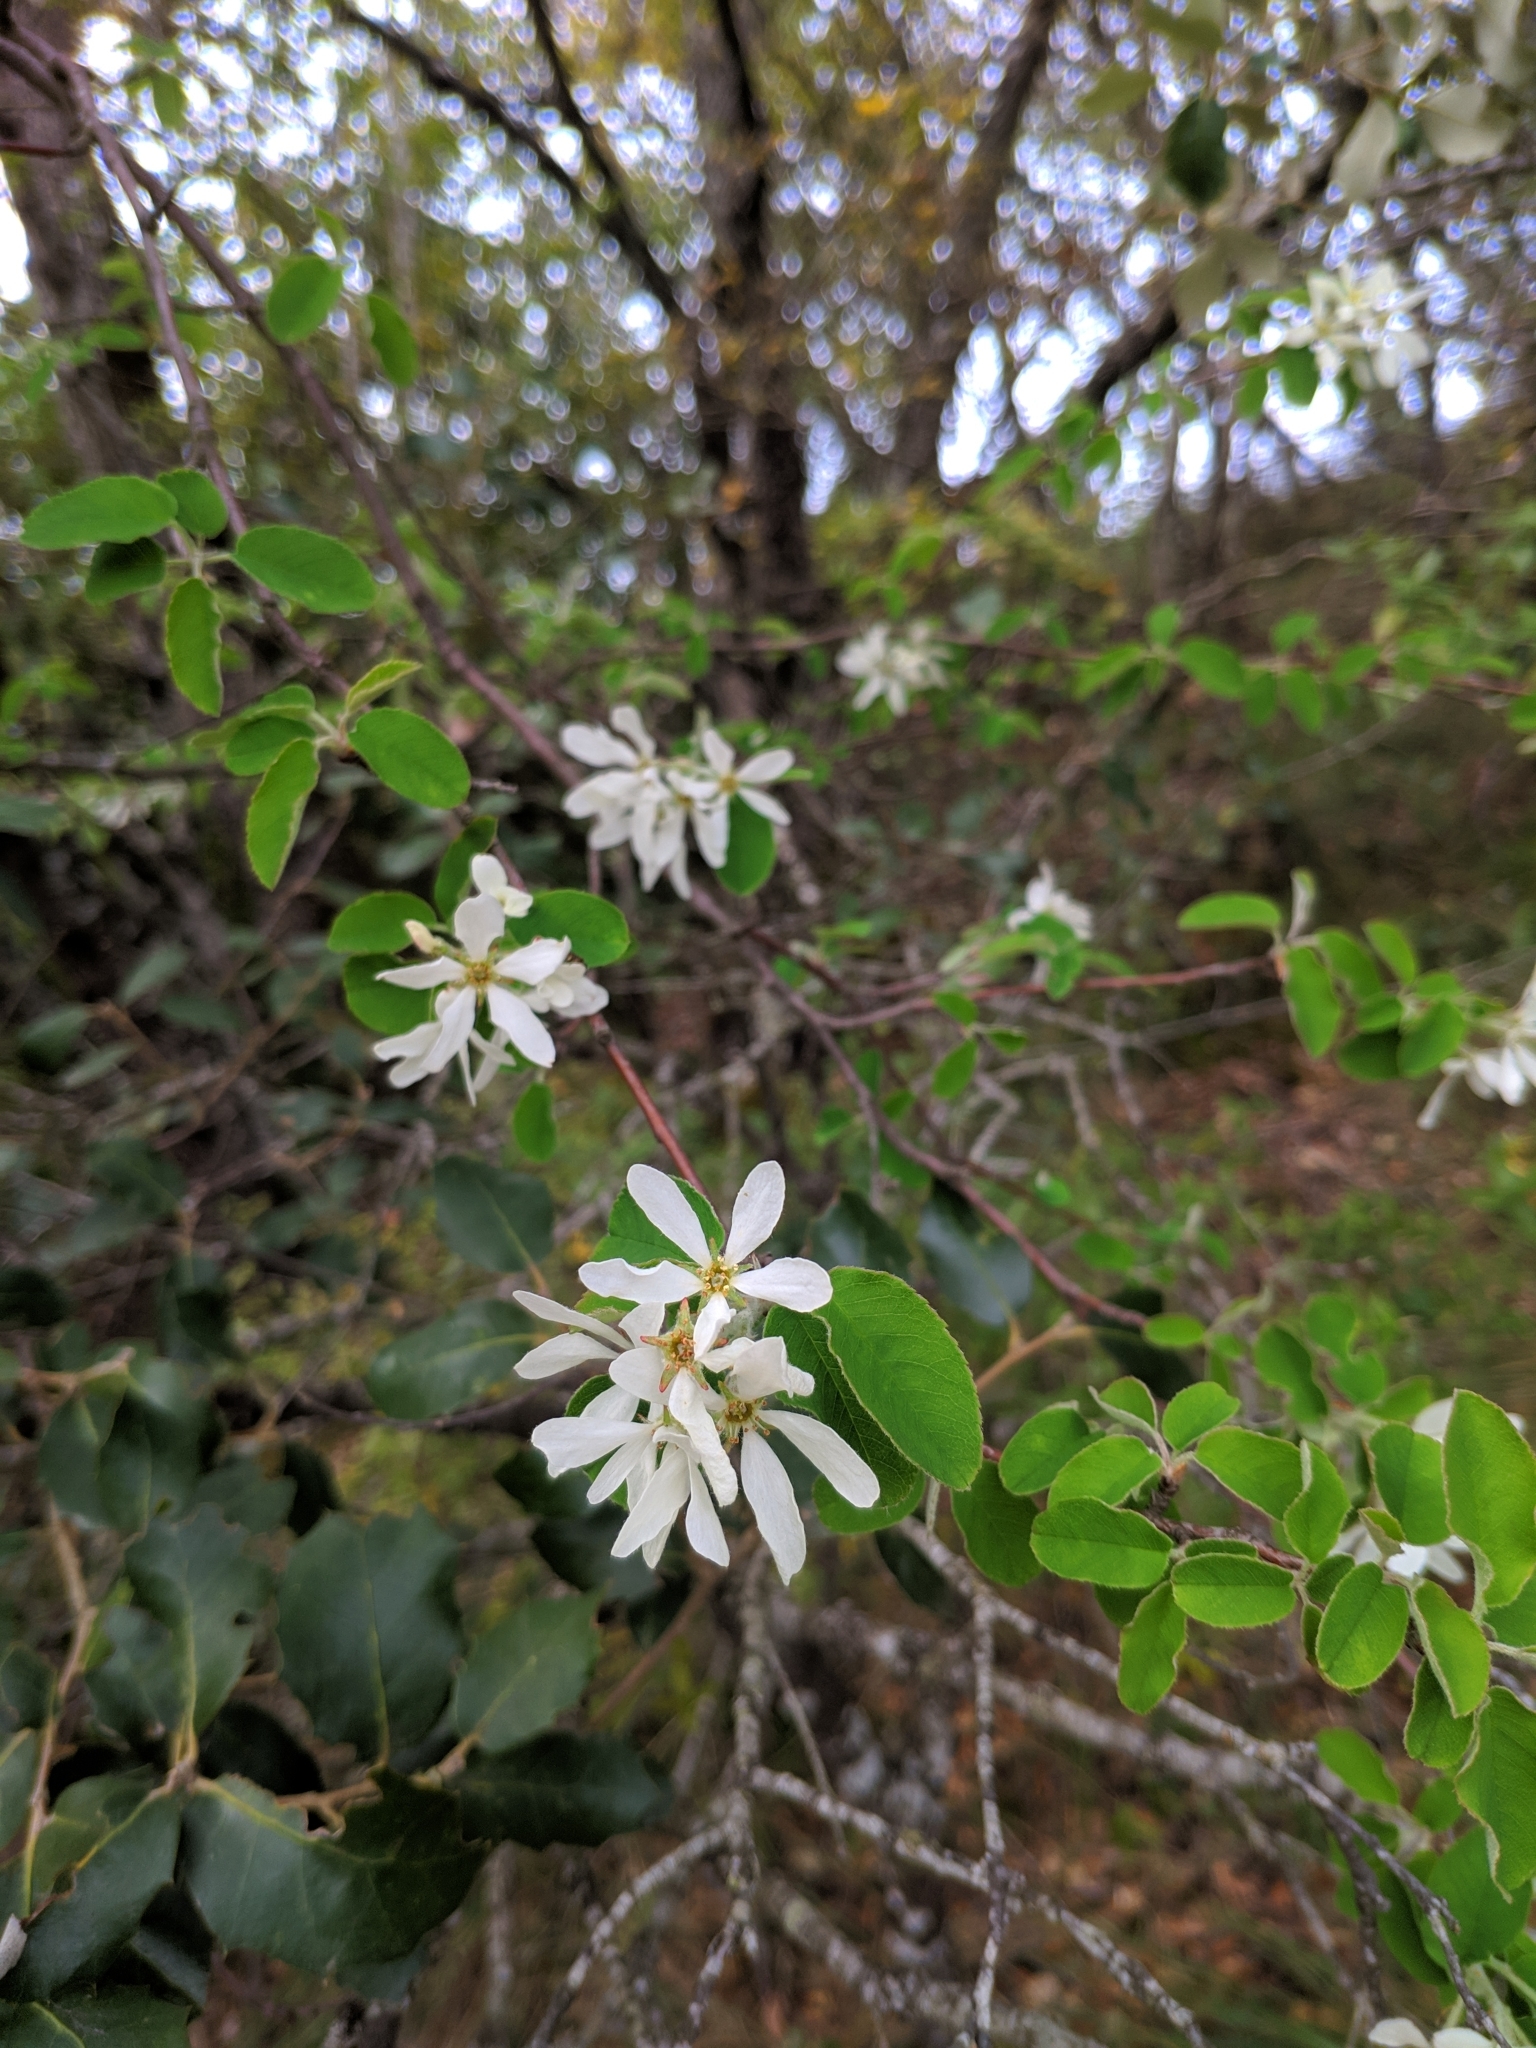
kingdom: Plantae
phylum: Tracheophyta
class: Magnoliopsida
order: Rosales
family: Rosaceae
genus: Amelanchier
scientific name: Amelanchier ovalis
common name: Serviceberry
